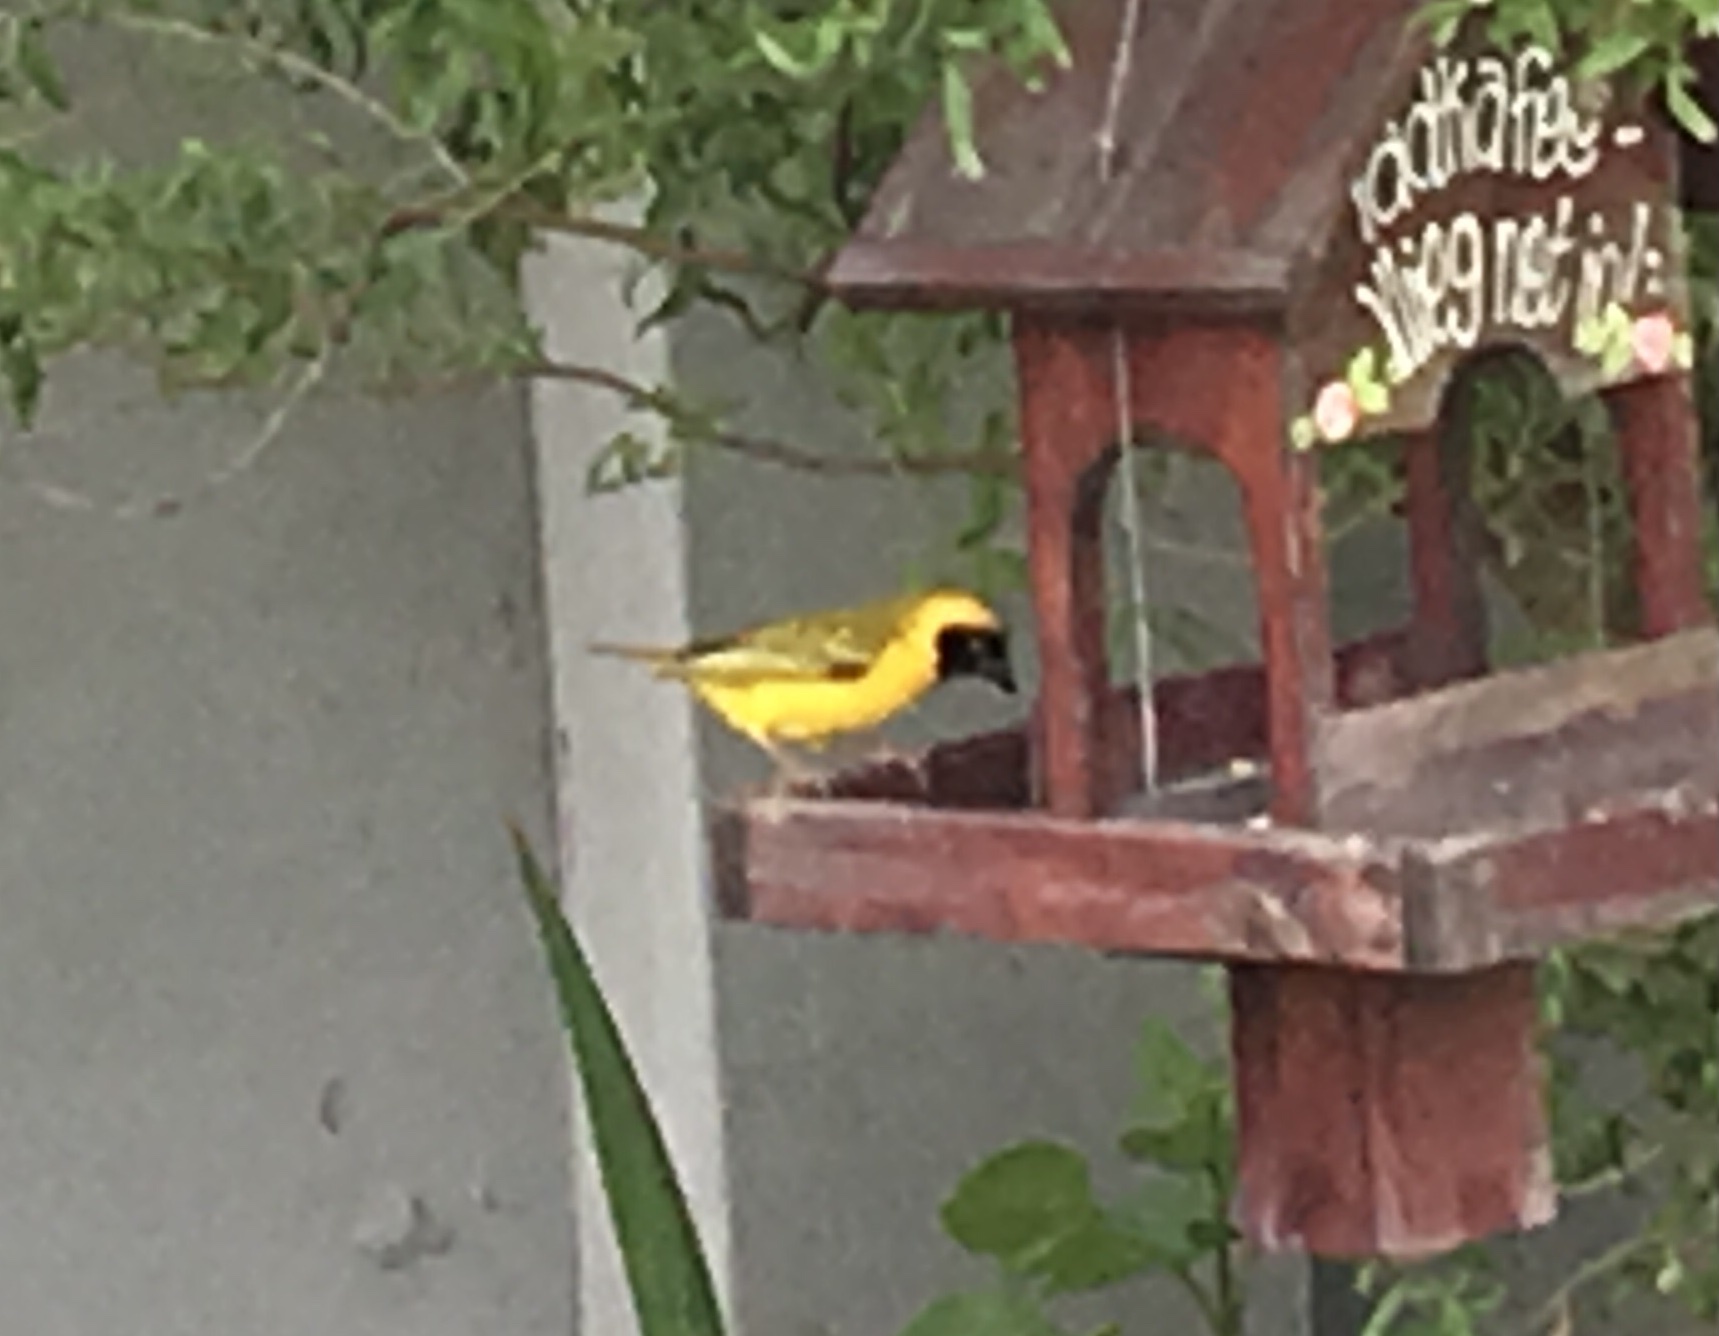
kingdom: Animalia
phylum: Chordata
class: Aves
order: Passeriformes
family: Ploceidae
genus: Ploceus
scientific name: Ploceus velatus
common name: Southern masked weaver
